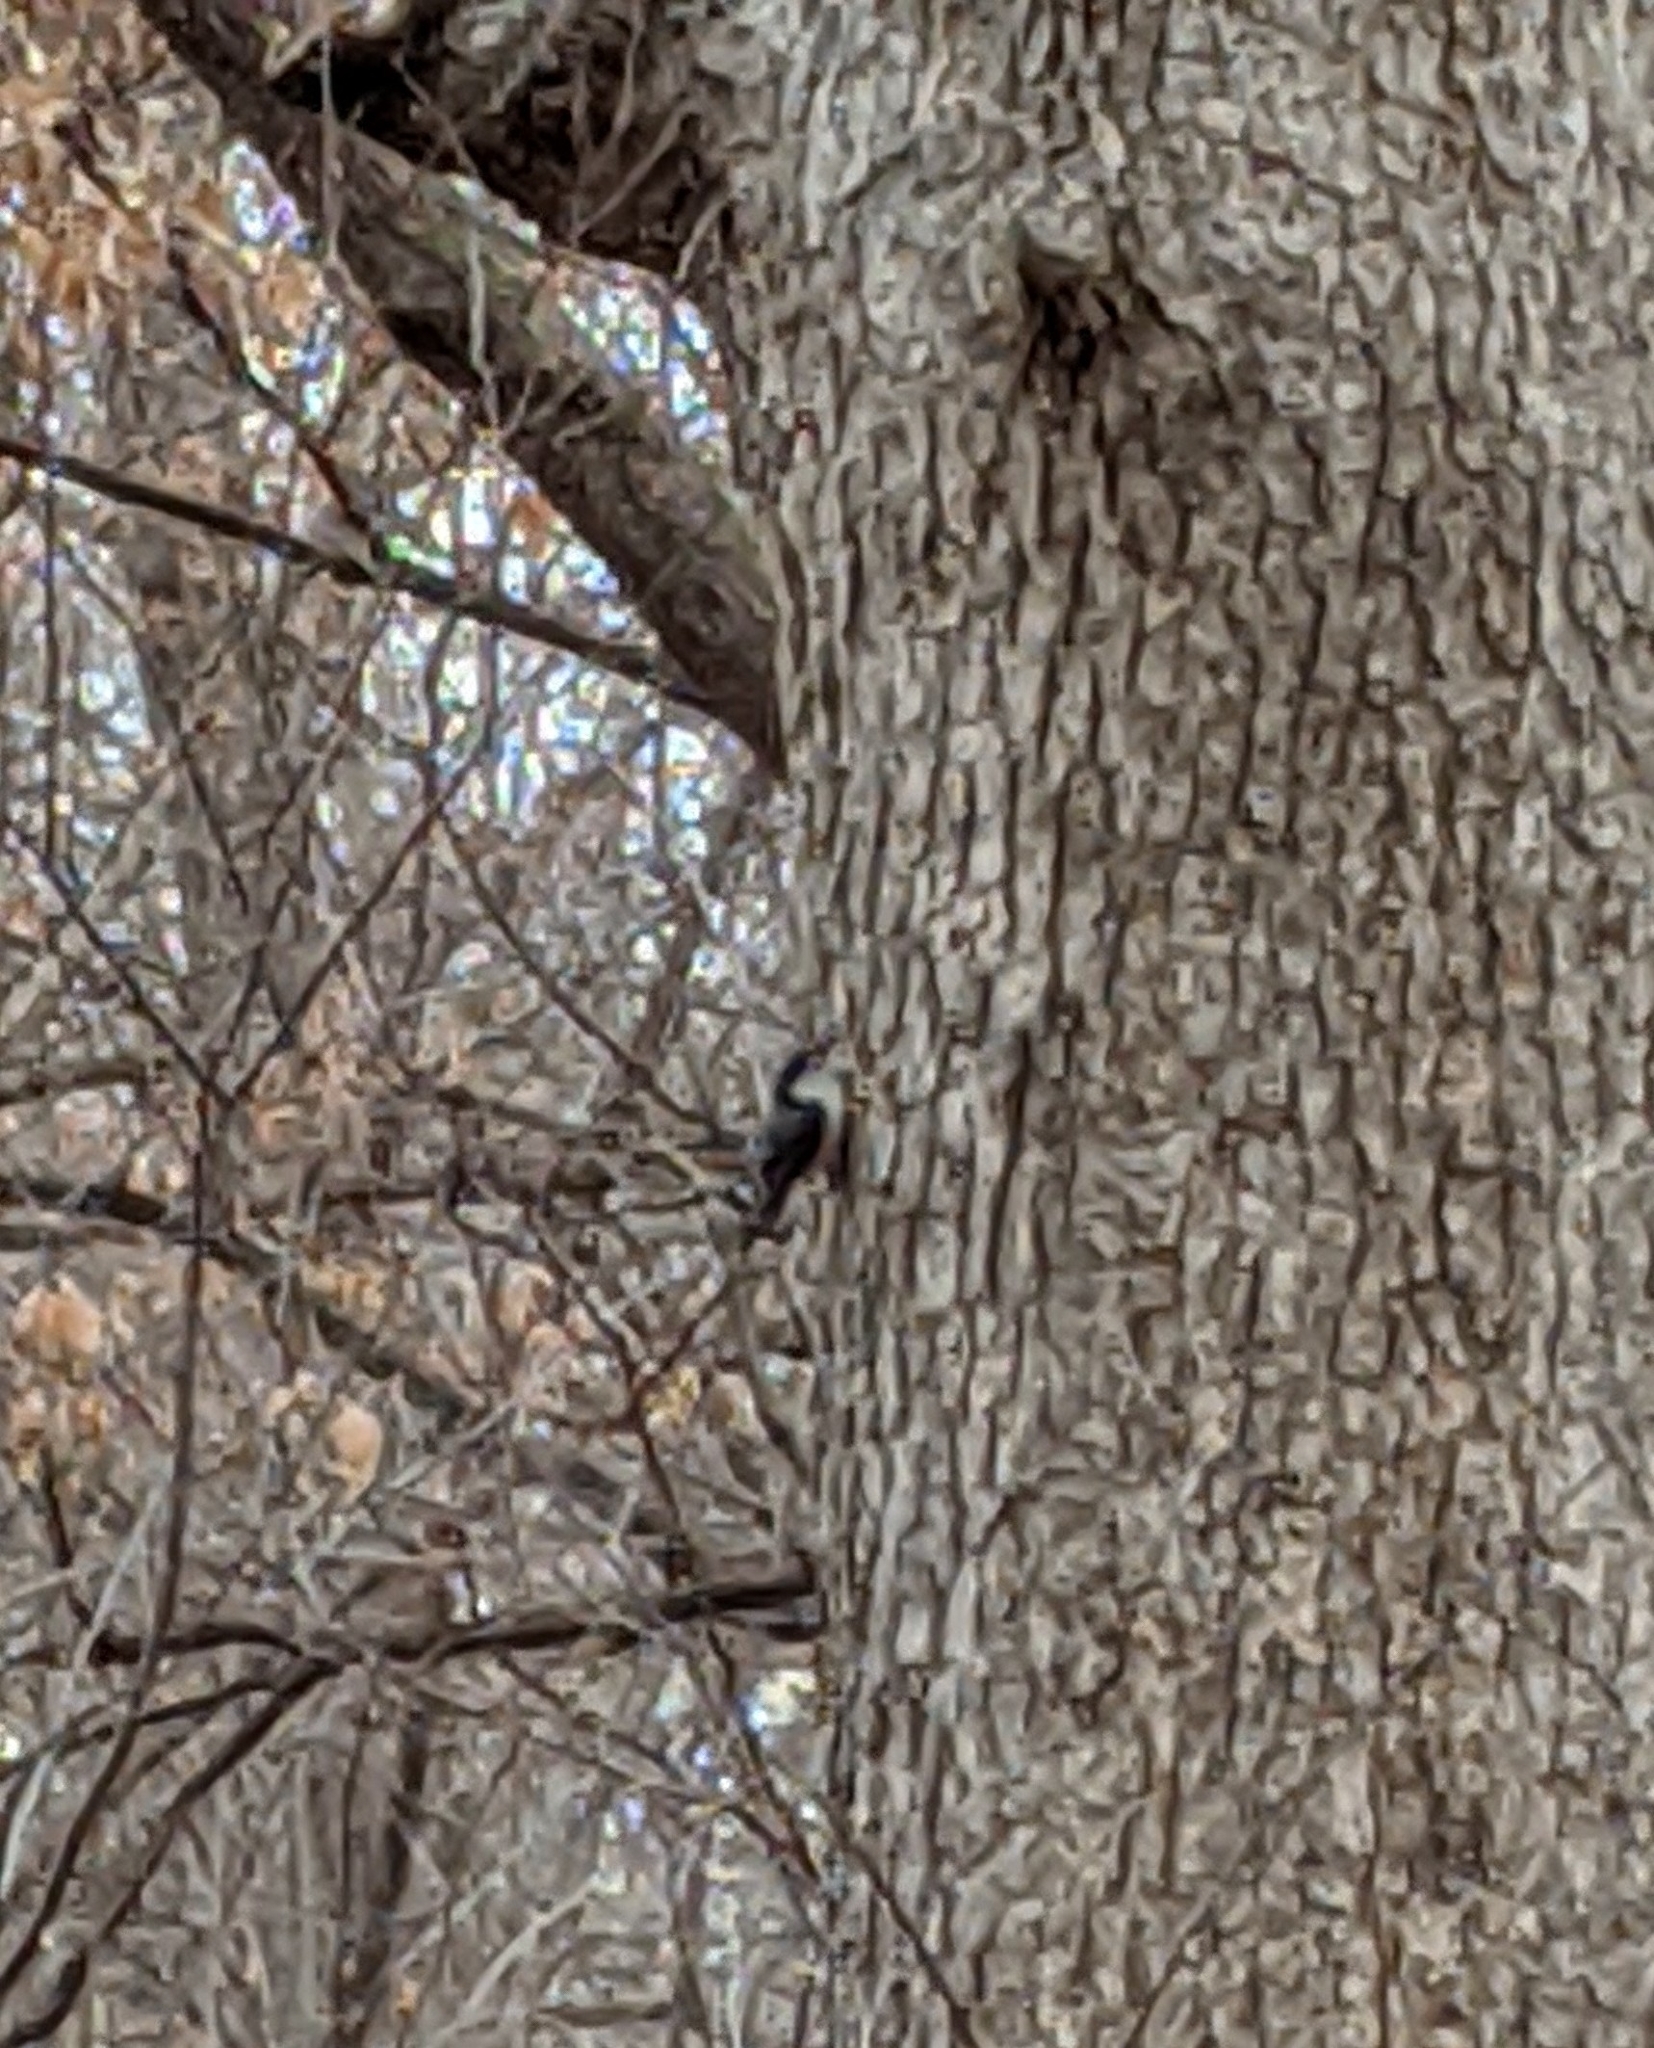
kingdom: Animalia
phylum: Chordata
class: Aves
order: Passeriformes
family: Sittidae
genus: Sitta
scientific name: Sitta carolinensis
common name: White-breasted nuthatch
